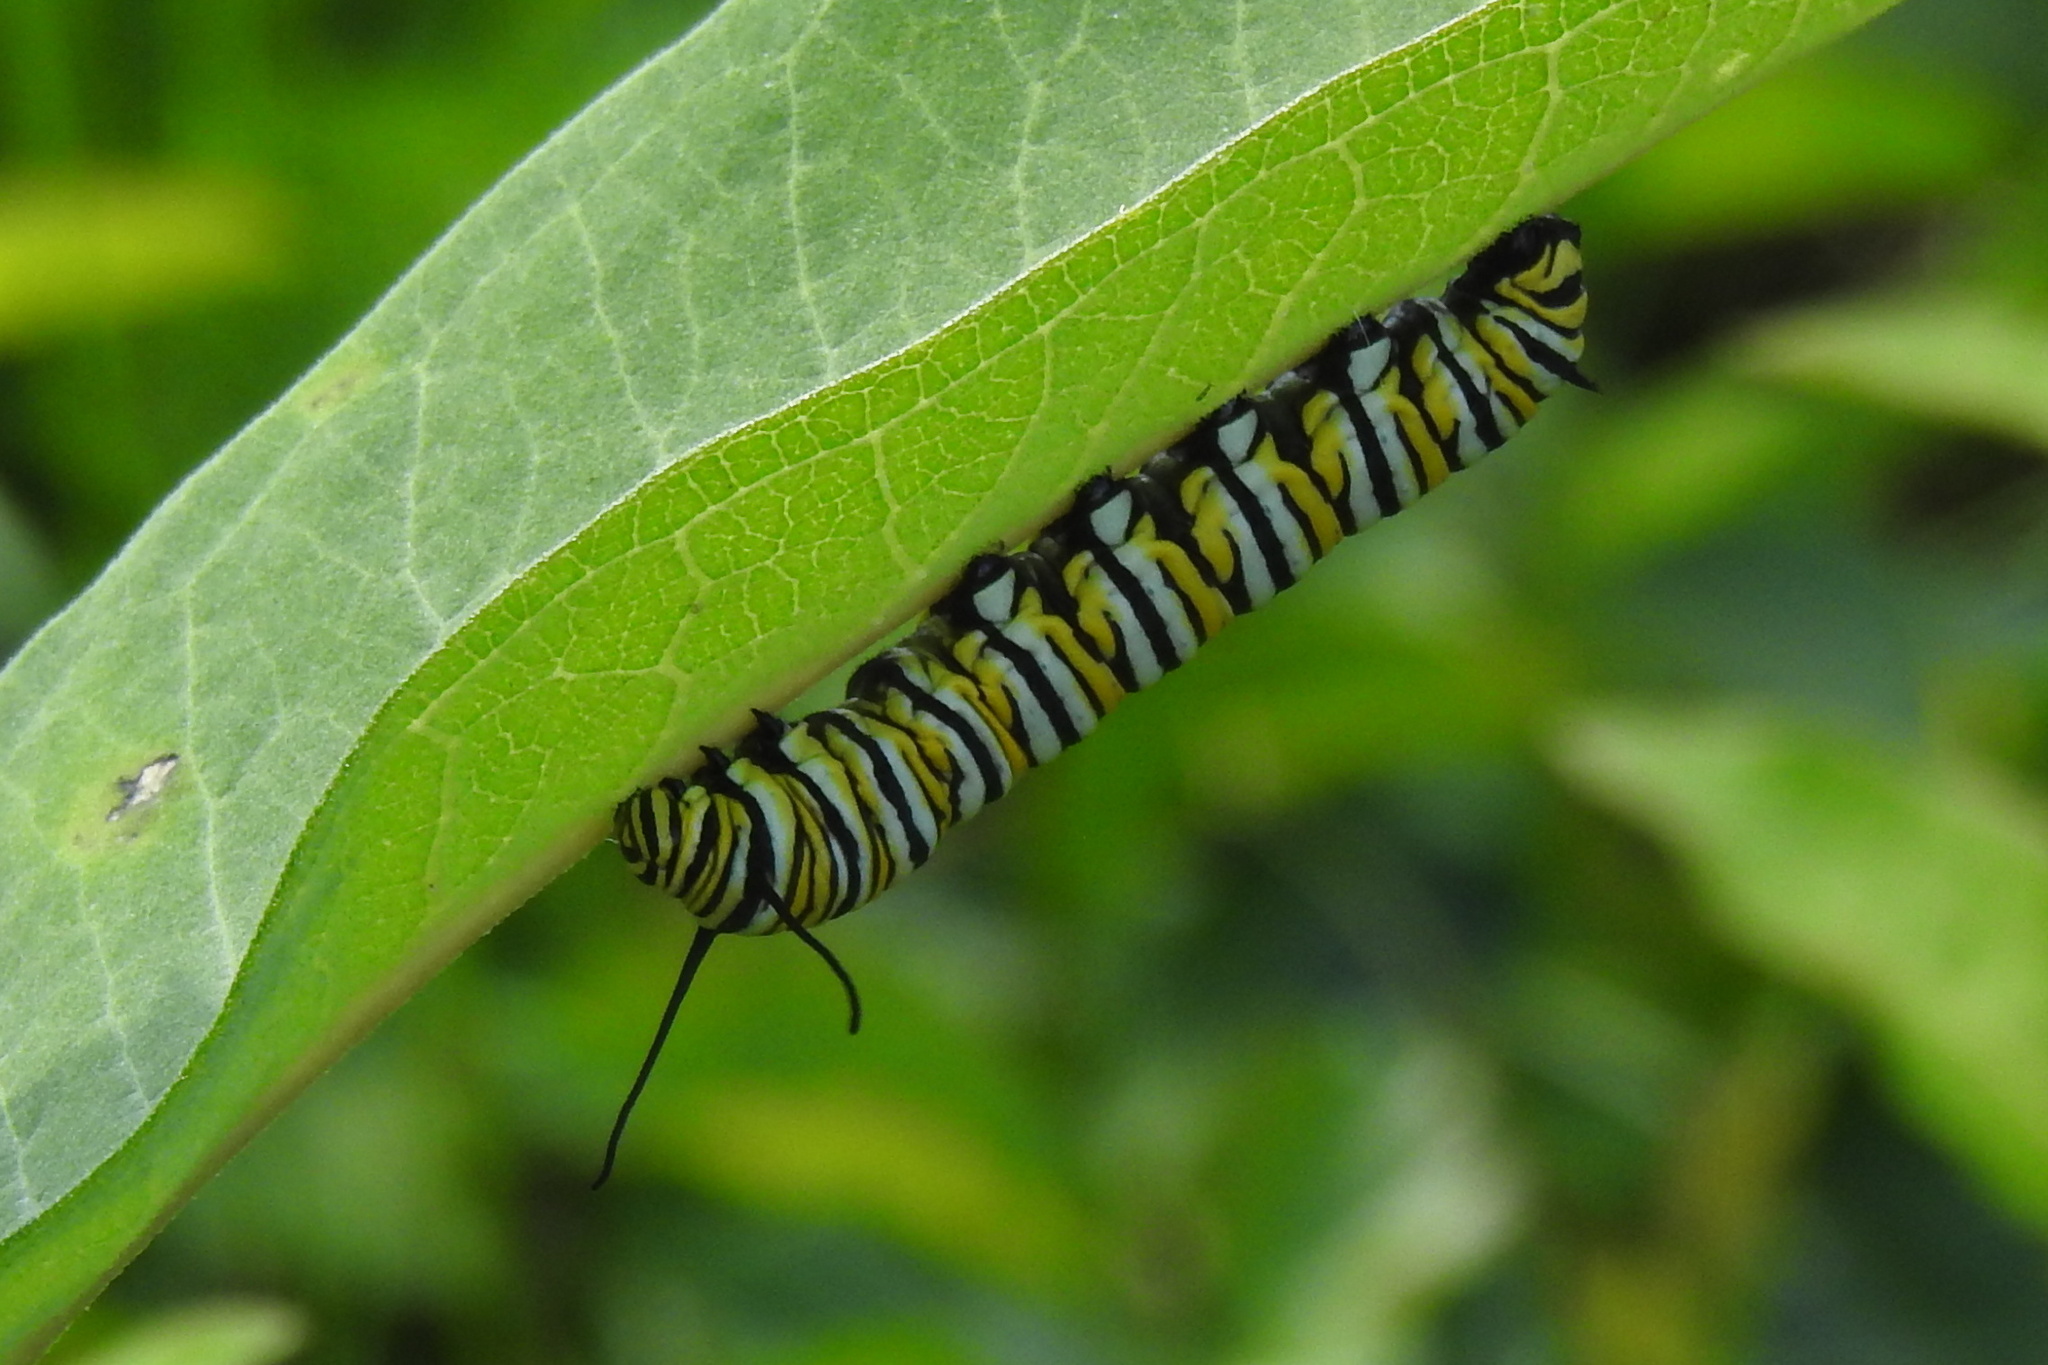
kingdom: Animalia
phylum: Arthropoda
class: Insecta
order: Lepidoptera
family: Nymphalidae
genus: Danaus
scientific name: Danaus plexippus
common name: Monarch
